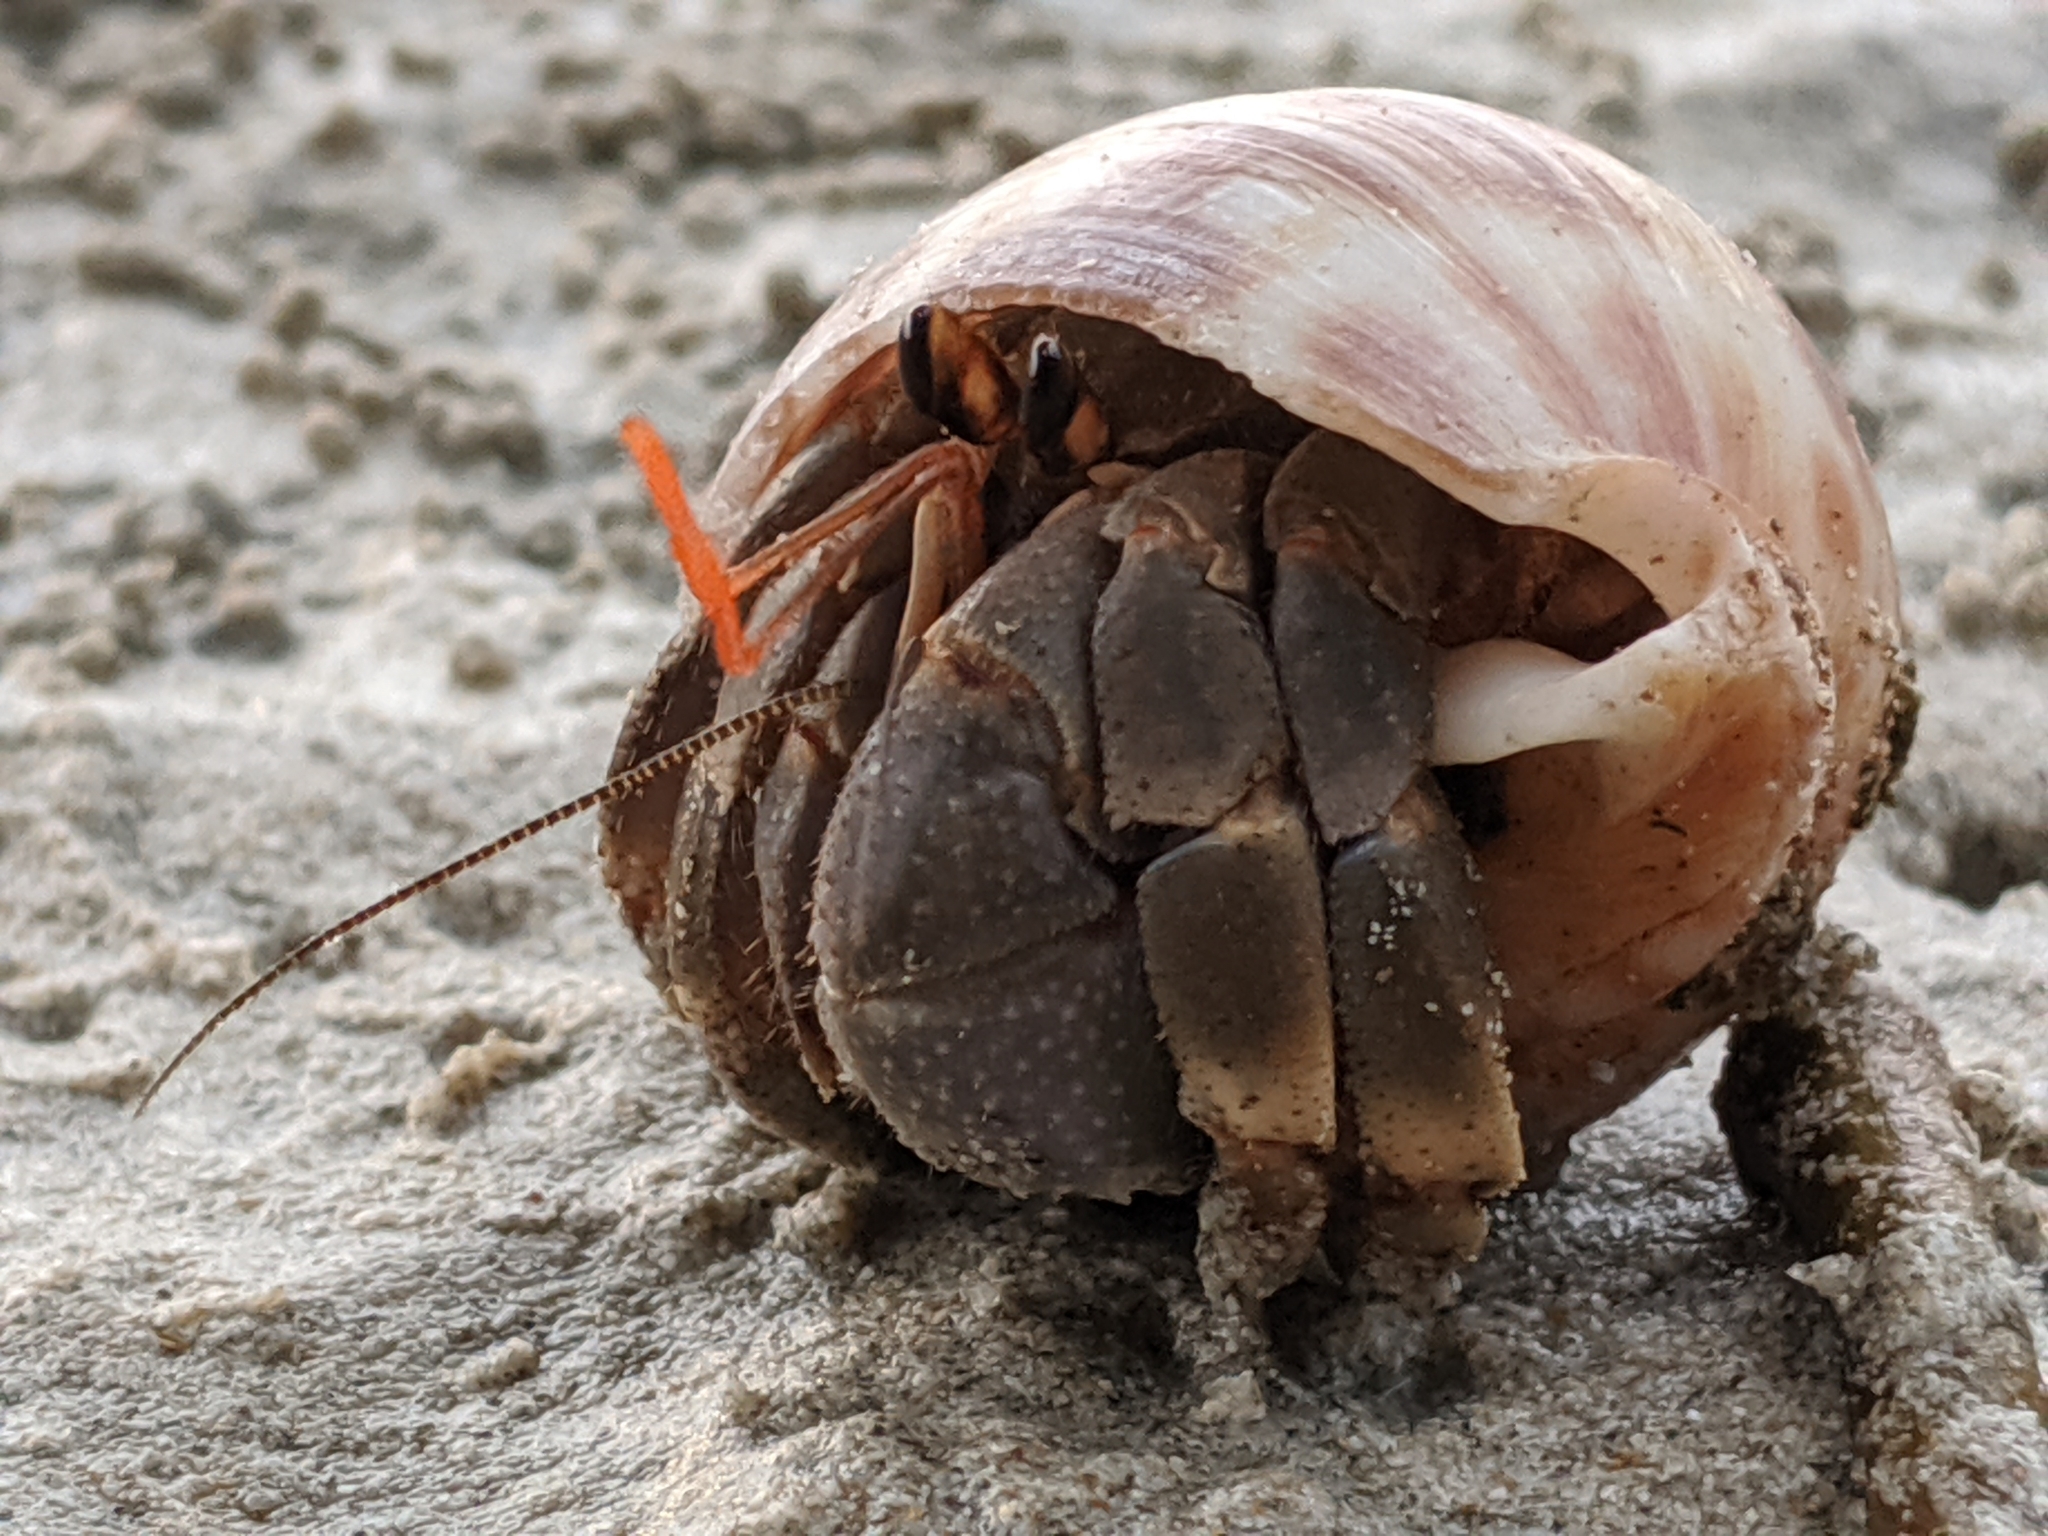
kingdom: Animalia
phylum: Arthropoda
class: Malacostraca
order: Decapoda
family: Coenobitidae
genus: Coenobita
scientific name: Coenobita violascens
